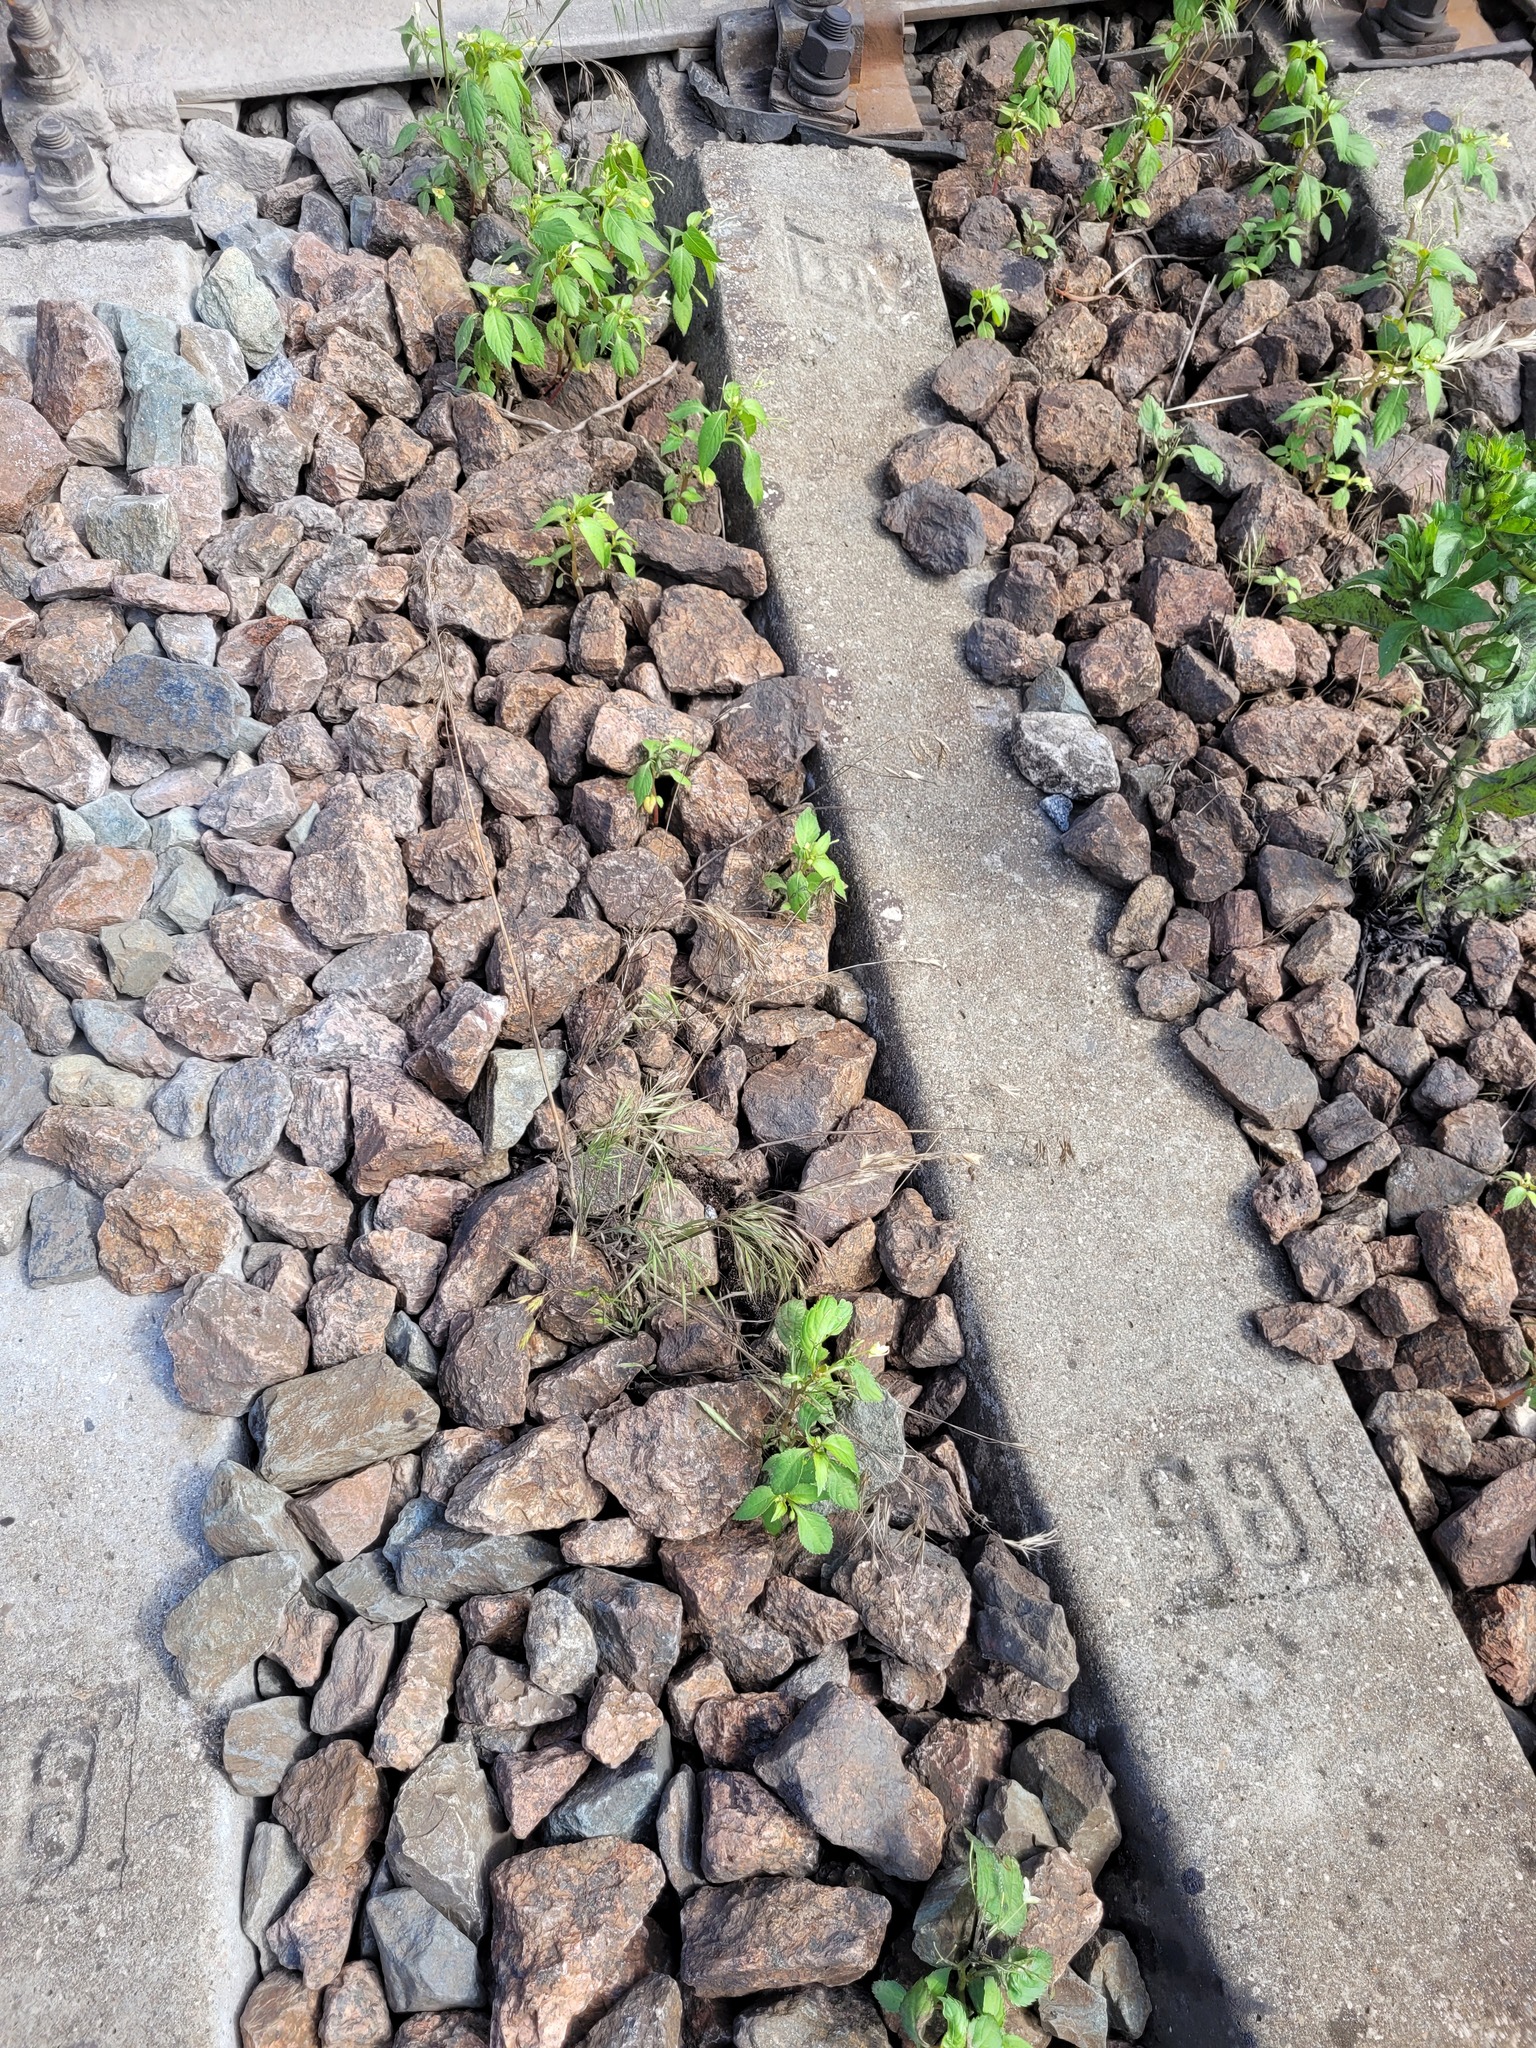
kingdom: Plantae
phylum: Tracheophyta
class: Liliopsida
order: Poales
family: Poaceae
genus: Bromus
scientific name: Bromus tectorum
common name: Cheatgrass
